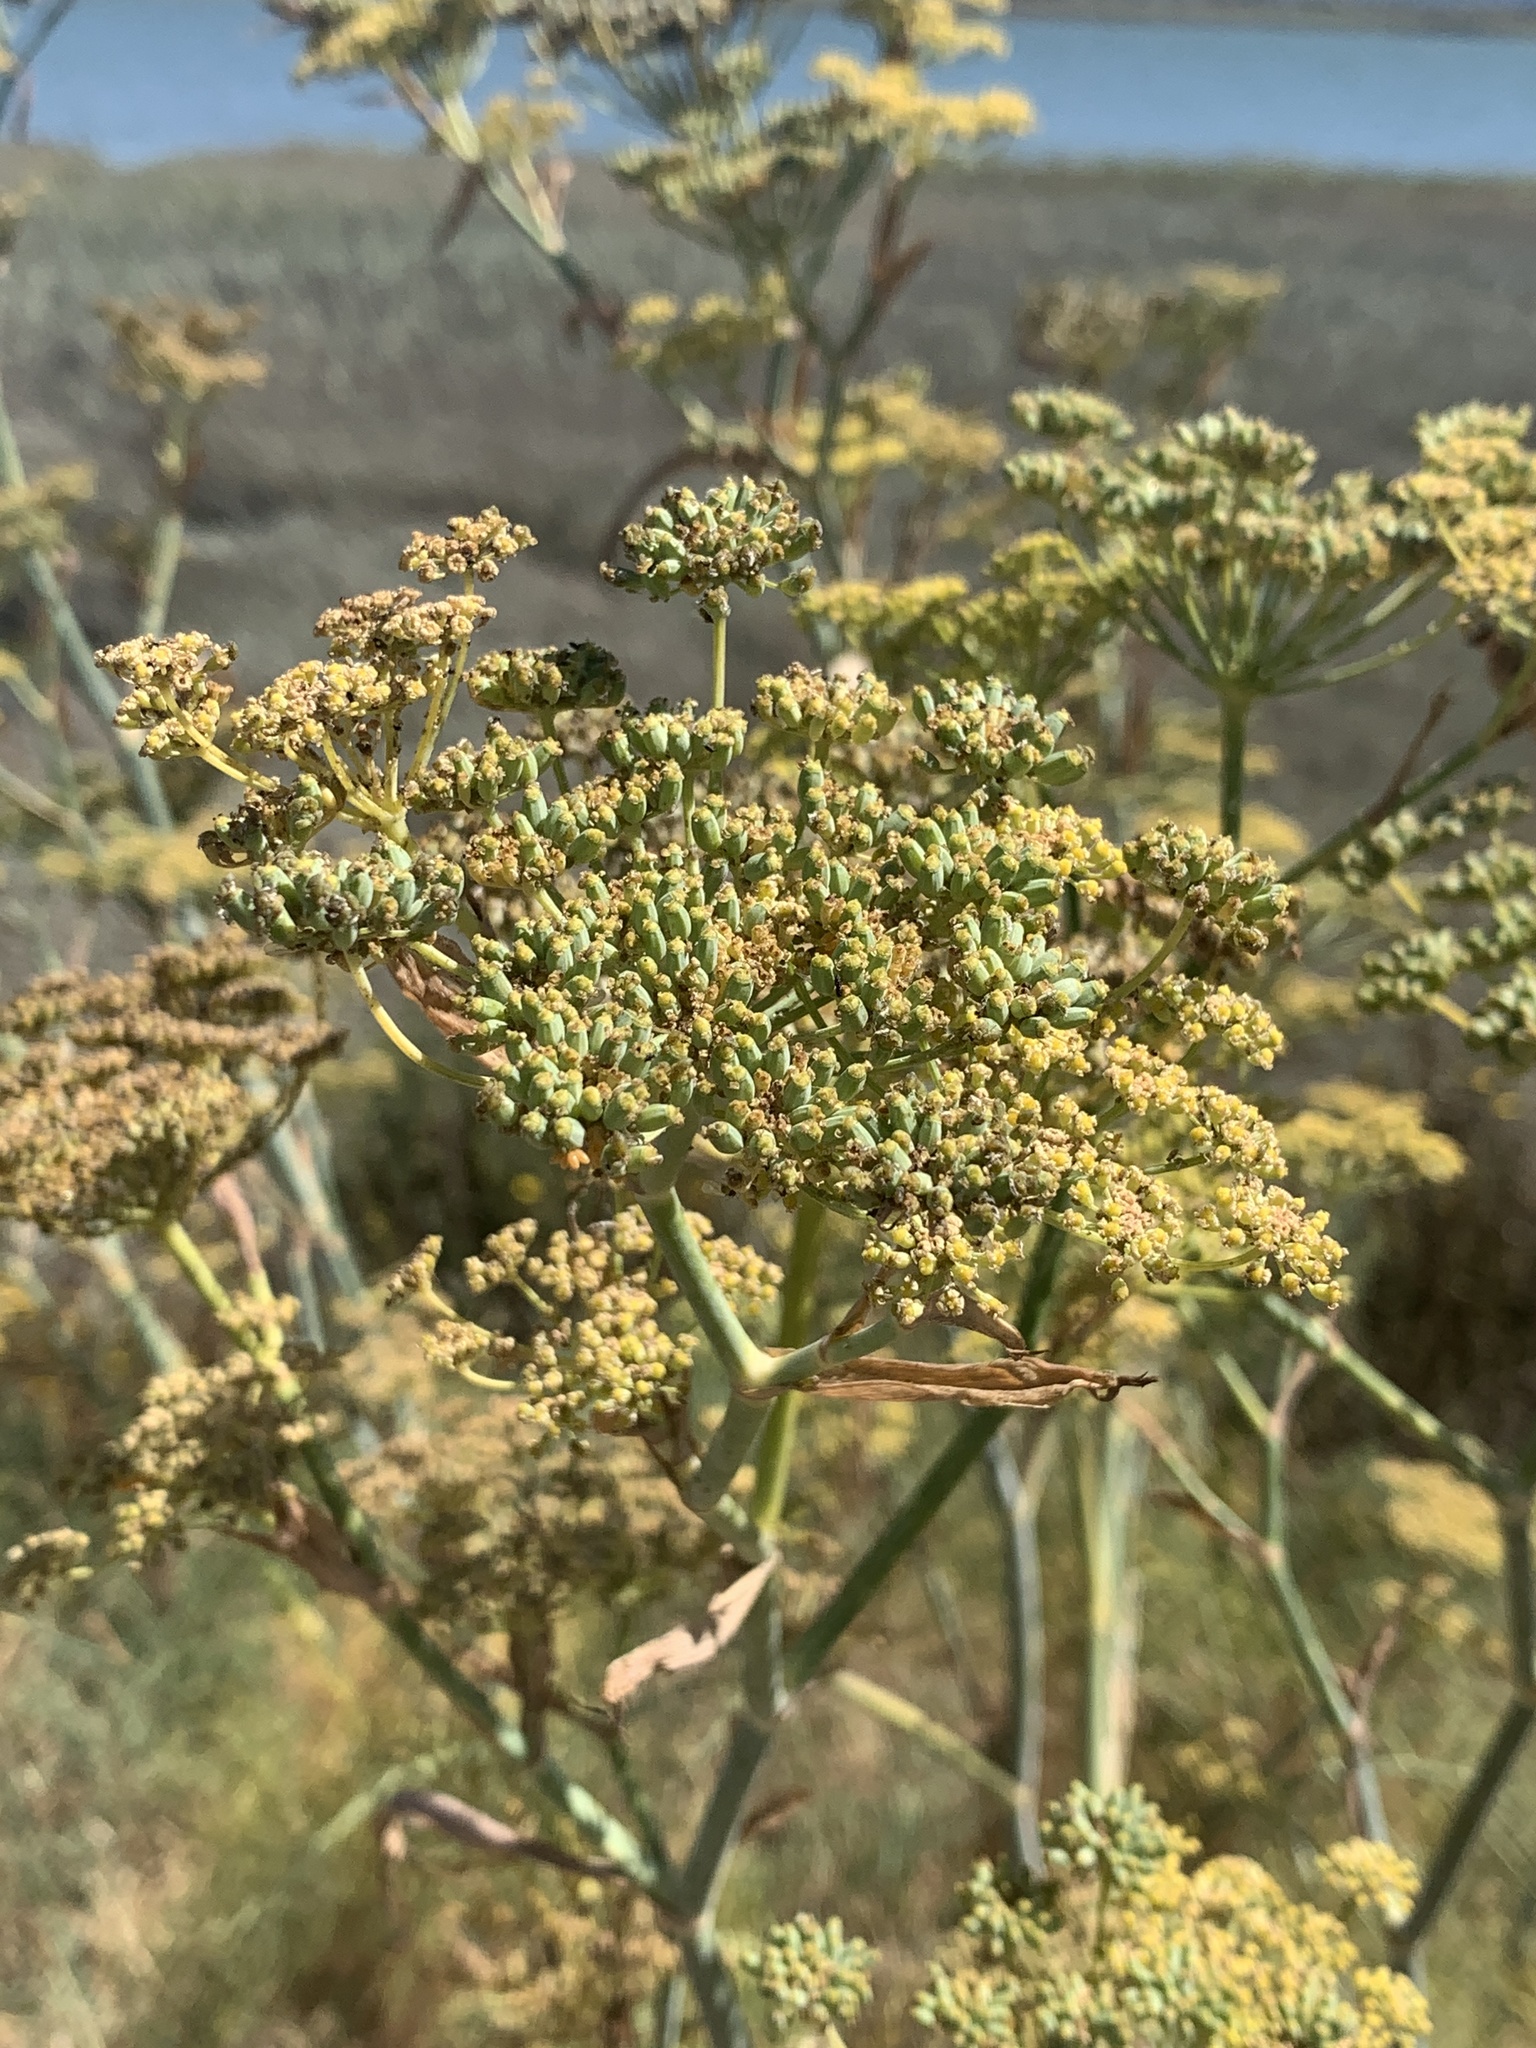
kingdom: Plantae
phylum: Tracheophyta
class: Magnoliopsida
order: Apiales
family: Apiaceae
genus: Foeniculum
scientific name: Foeniculum vulgare
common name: Fennel
